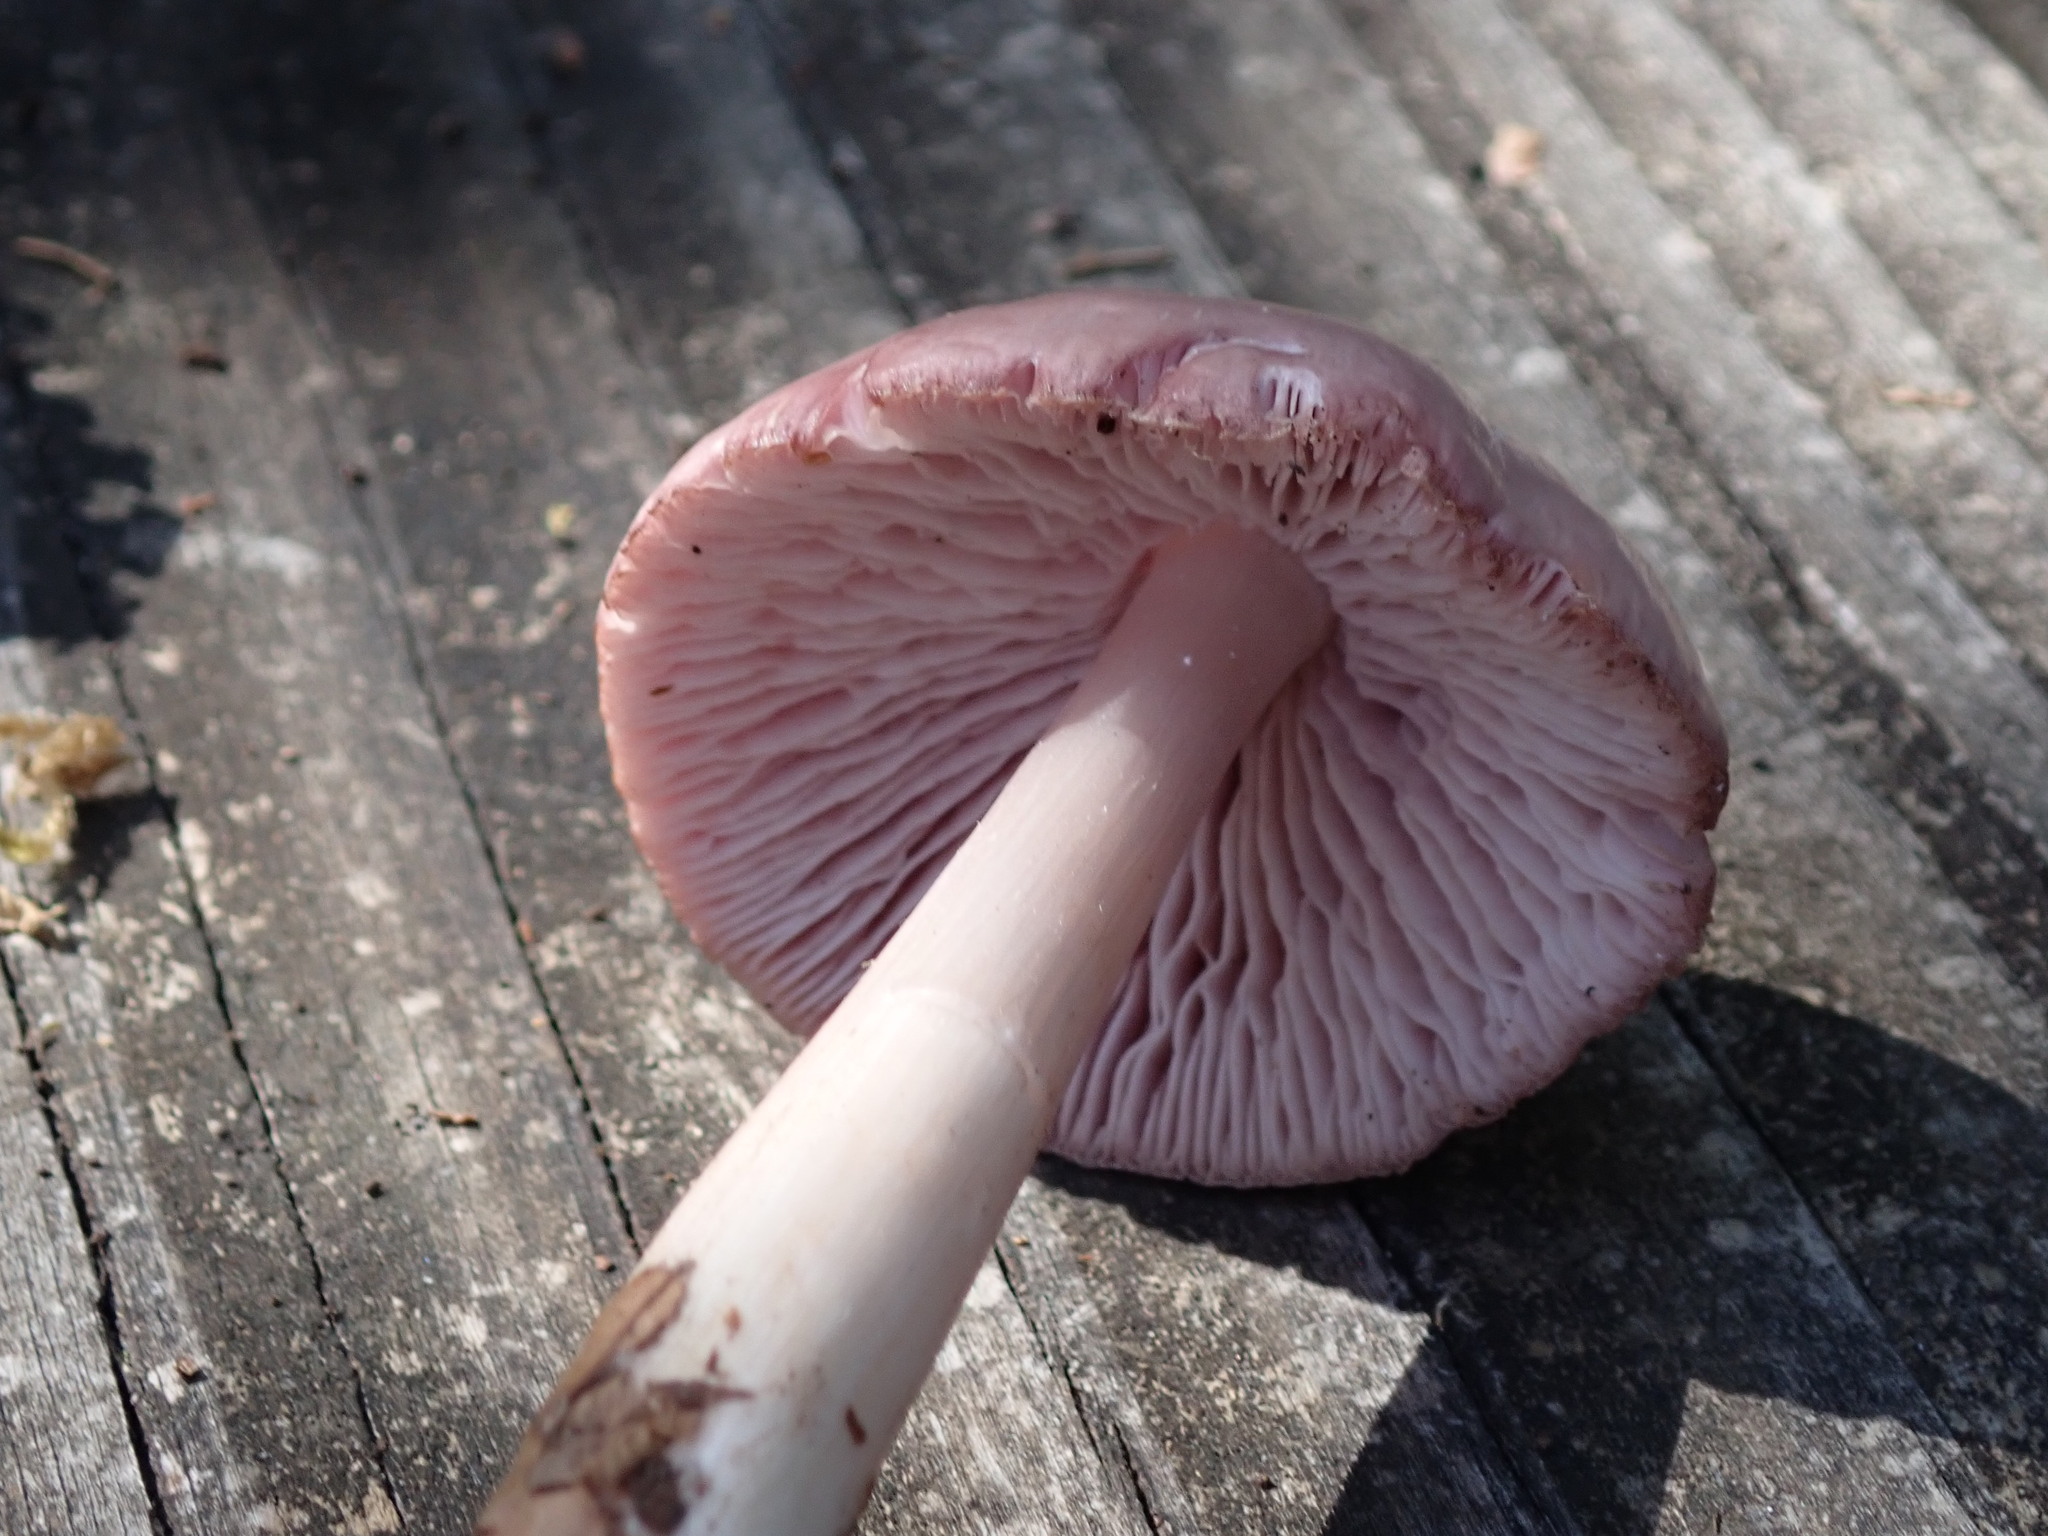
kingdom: Fungi
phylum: Basidiomycota
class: Agaricomycetes
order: Agaricales
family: Mycenaceae
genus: Mycena
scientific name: Mycena pura
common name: Lilac bonnet
